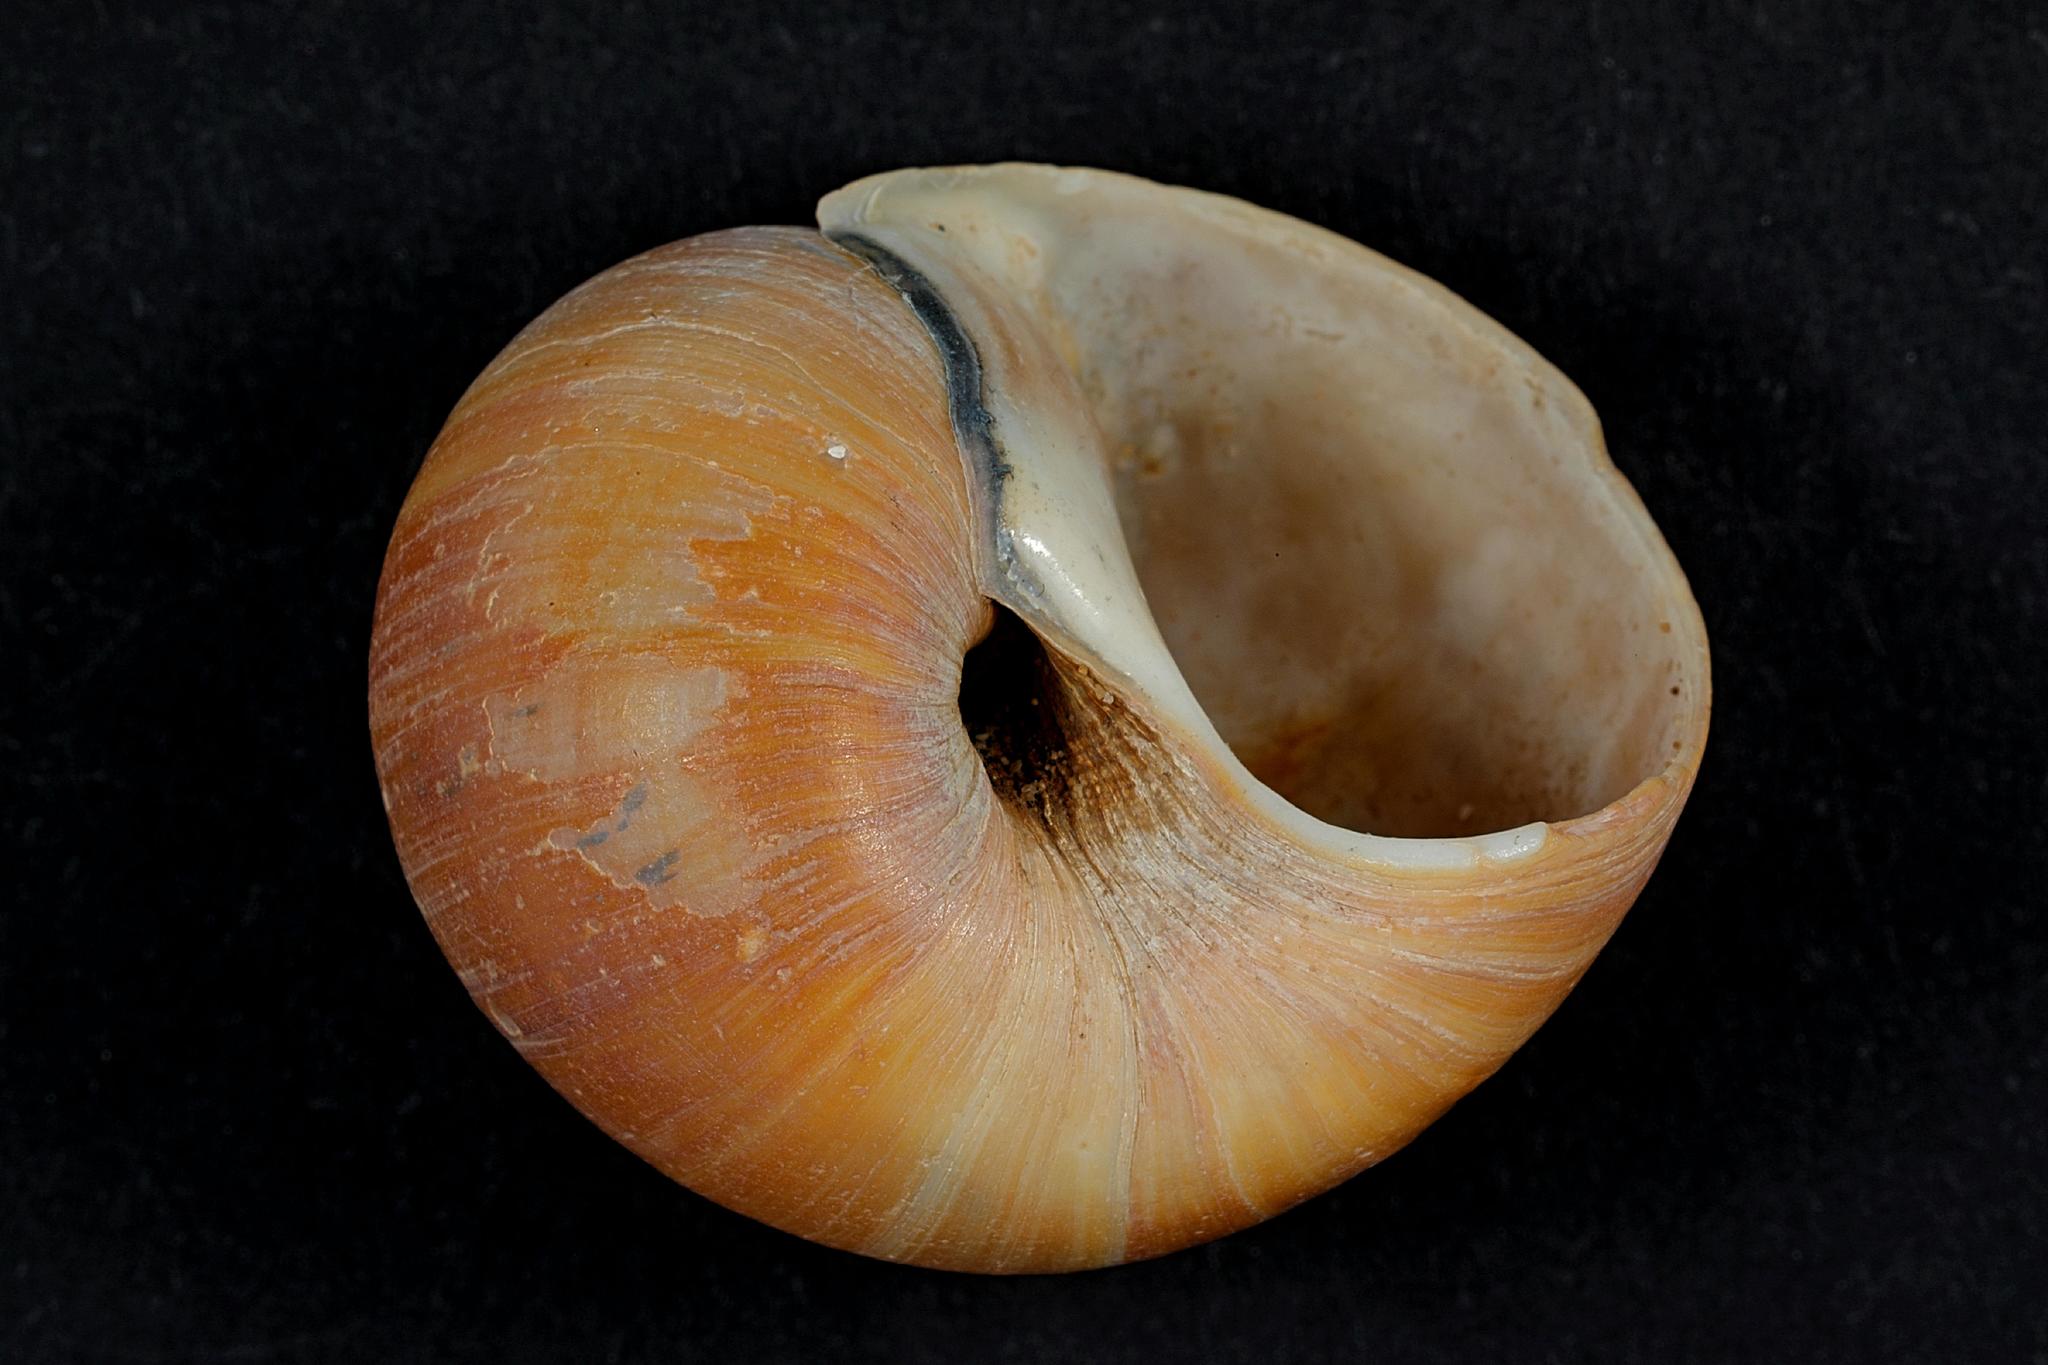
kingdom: Animalia
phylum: Mollusca
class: Gastropoda
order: Littorinimorpha
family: Naticidae
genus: Euspira
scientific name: Euspira catena
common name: Necklace shell
